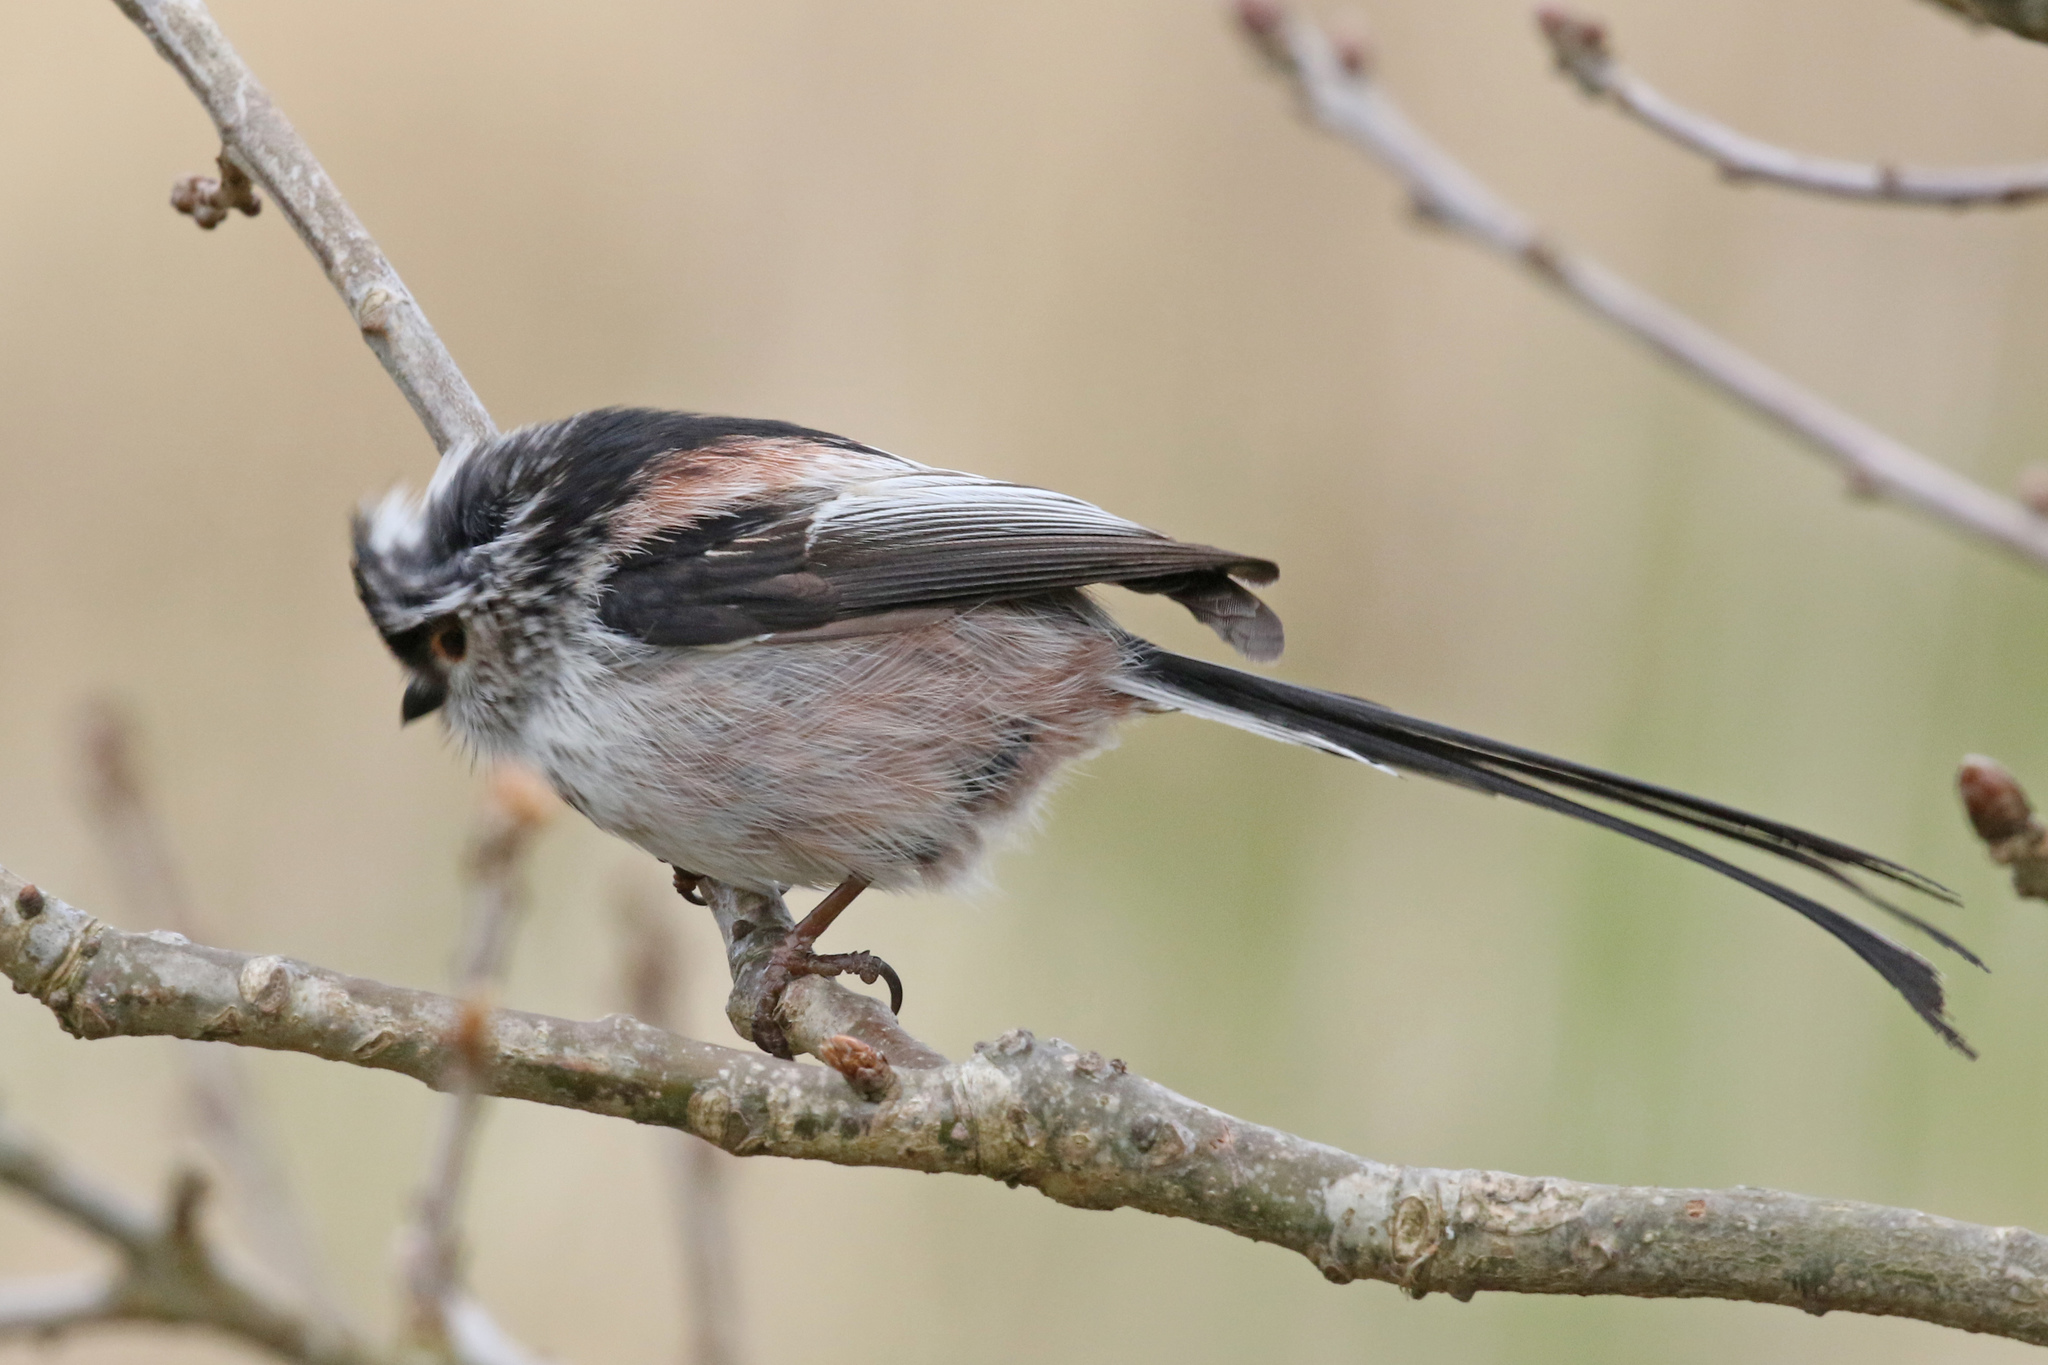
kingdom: Animalia
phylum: Chordata
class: Aves
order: Passeriformes
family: Aegithalidae
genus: Aegithalos
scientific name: Aegithalos caudatus
